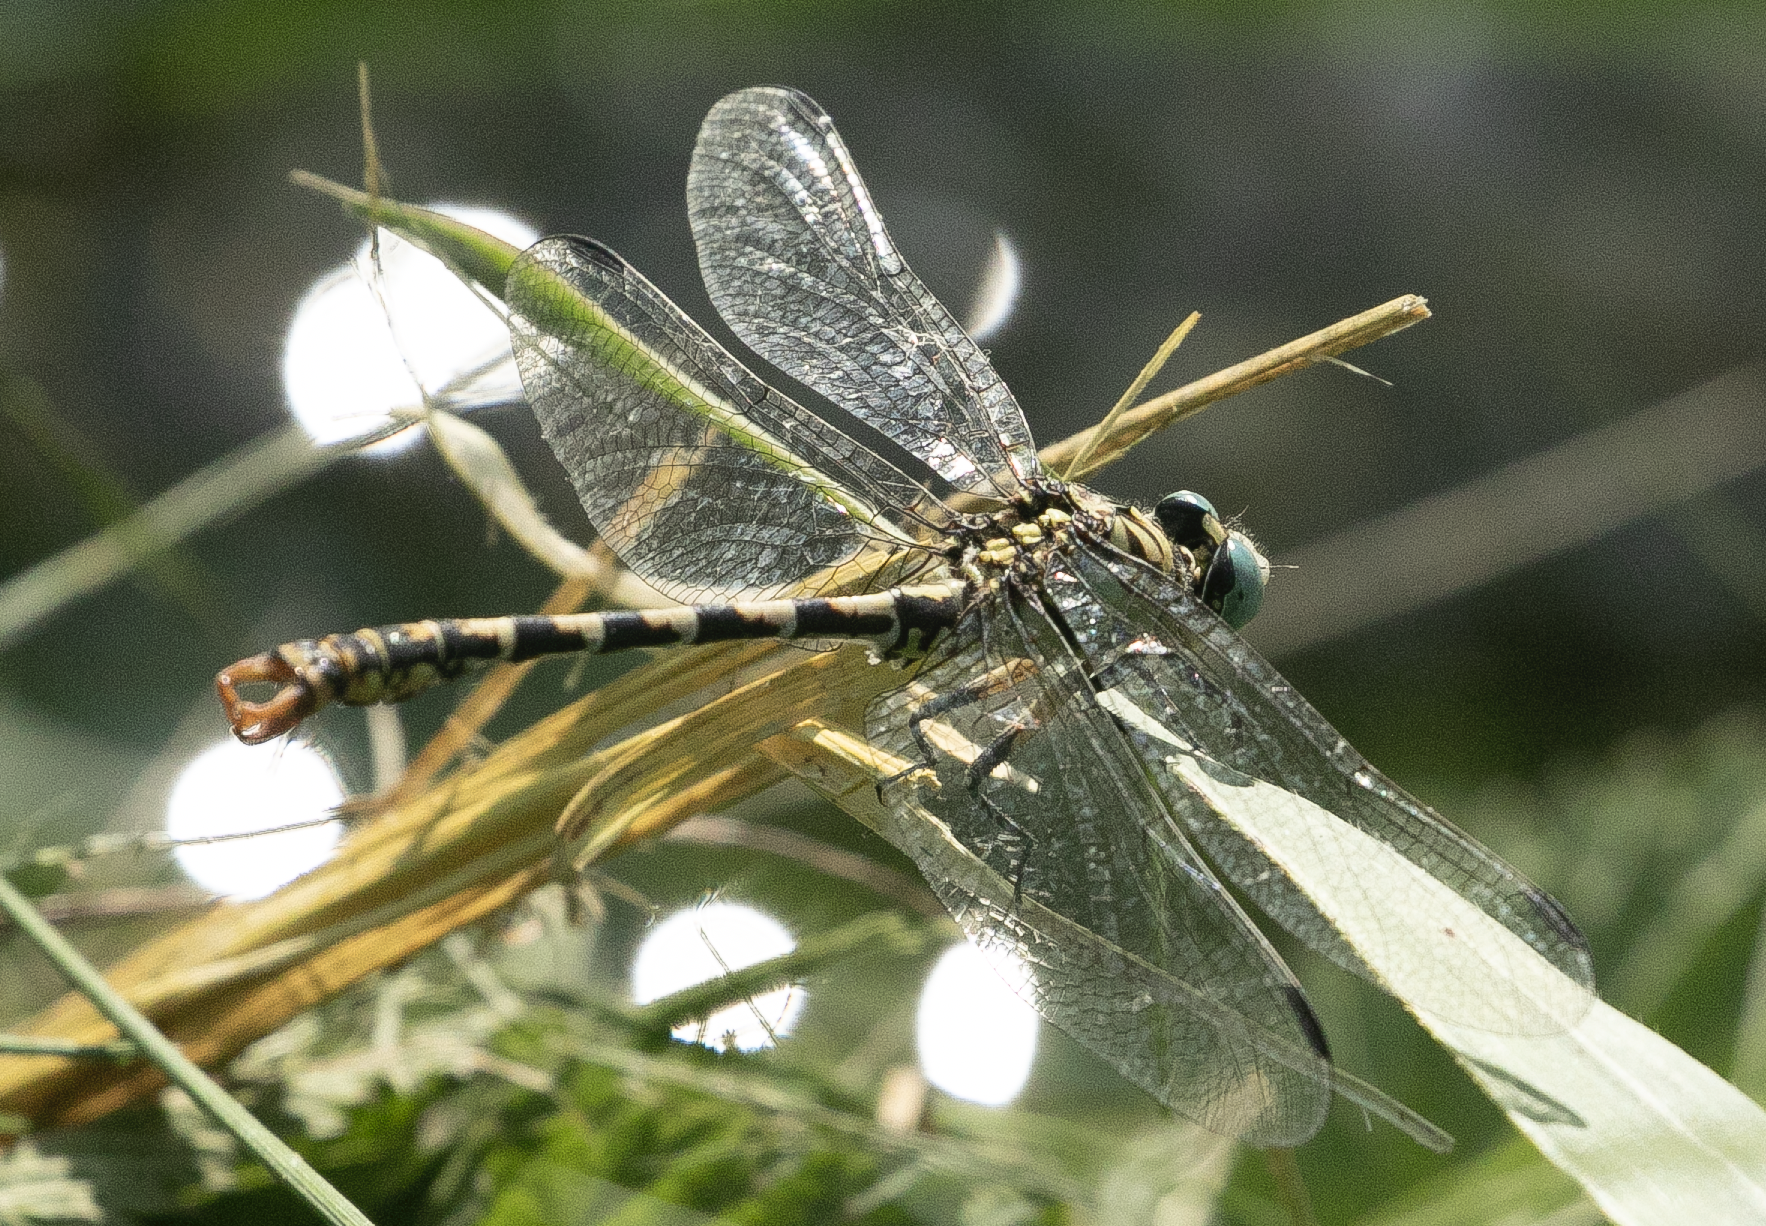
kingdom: Animalia
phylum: Arthropoda
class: Insecta
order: Odonata
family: Gomphidae
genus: Onychogomphus
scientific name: Onychogomphus forcipatus
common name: Small pincertail
